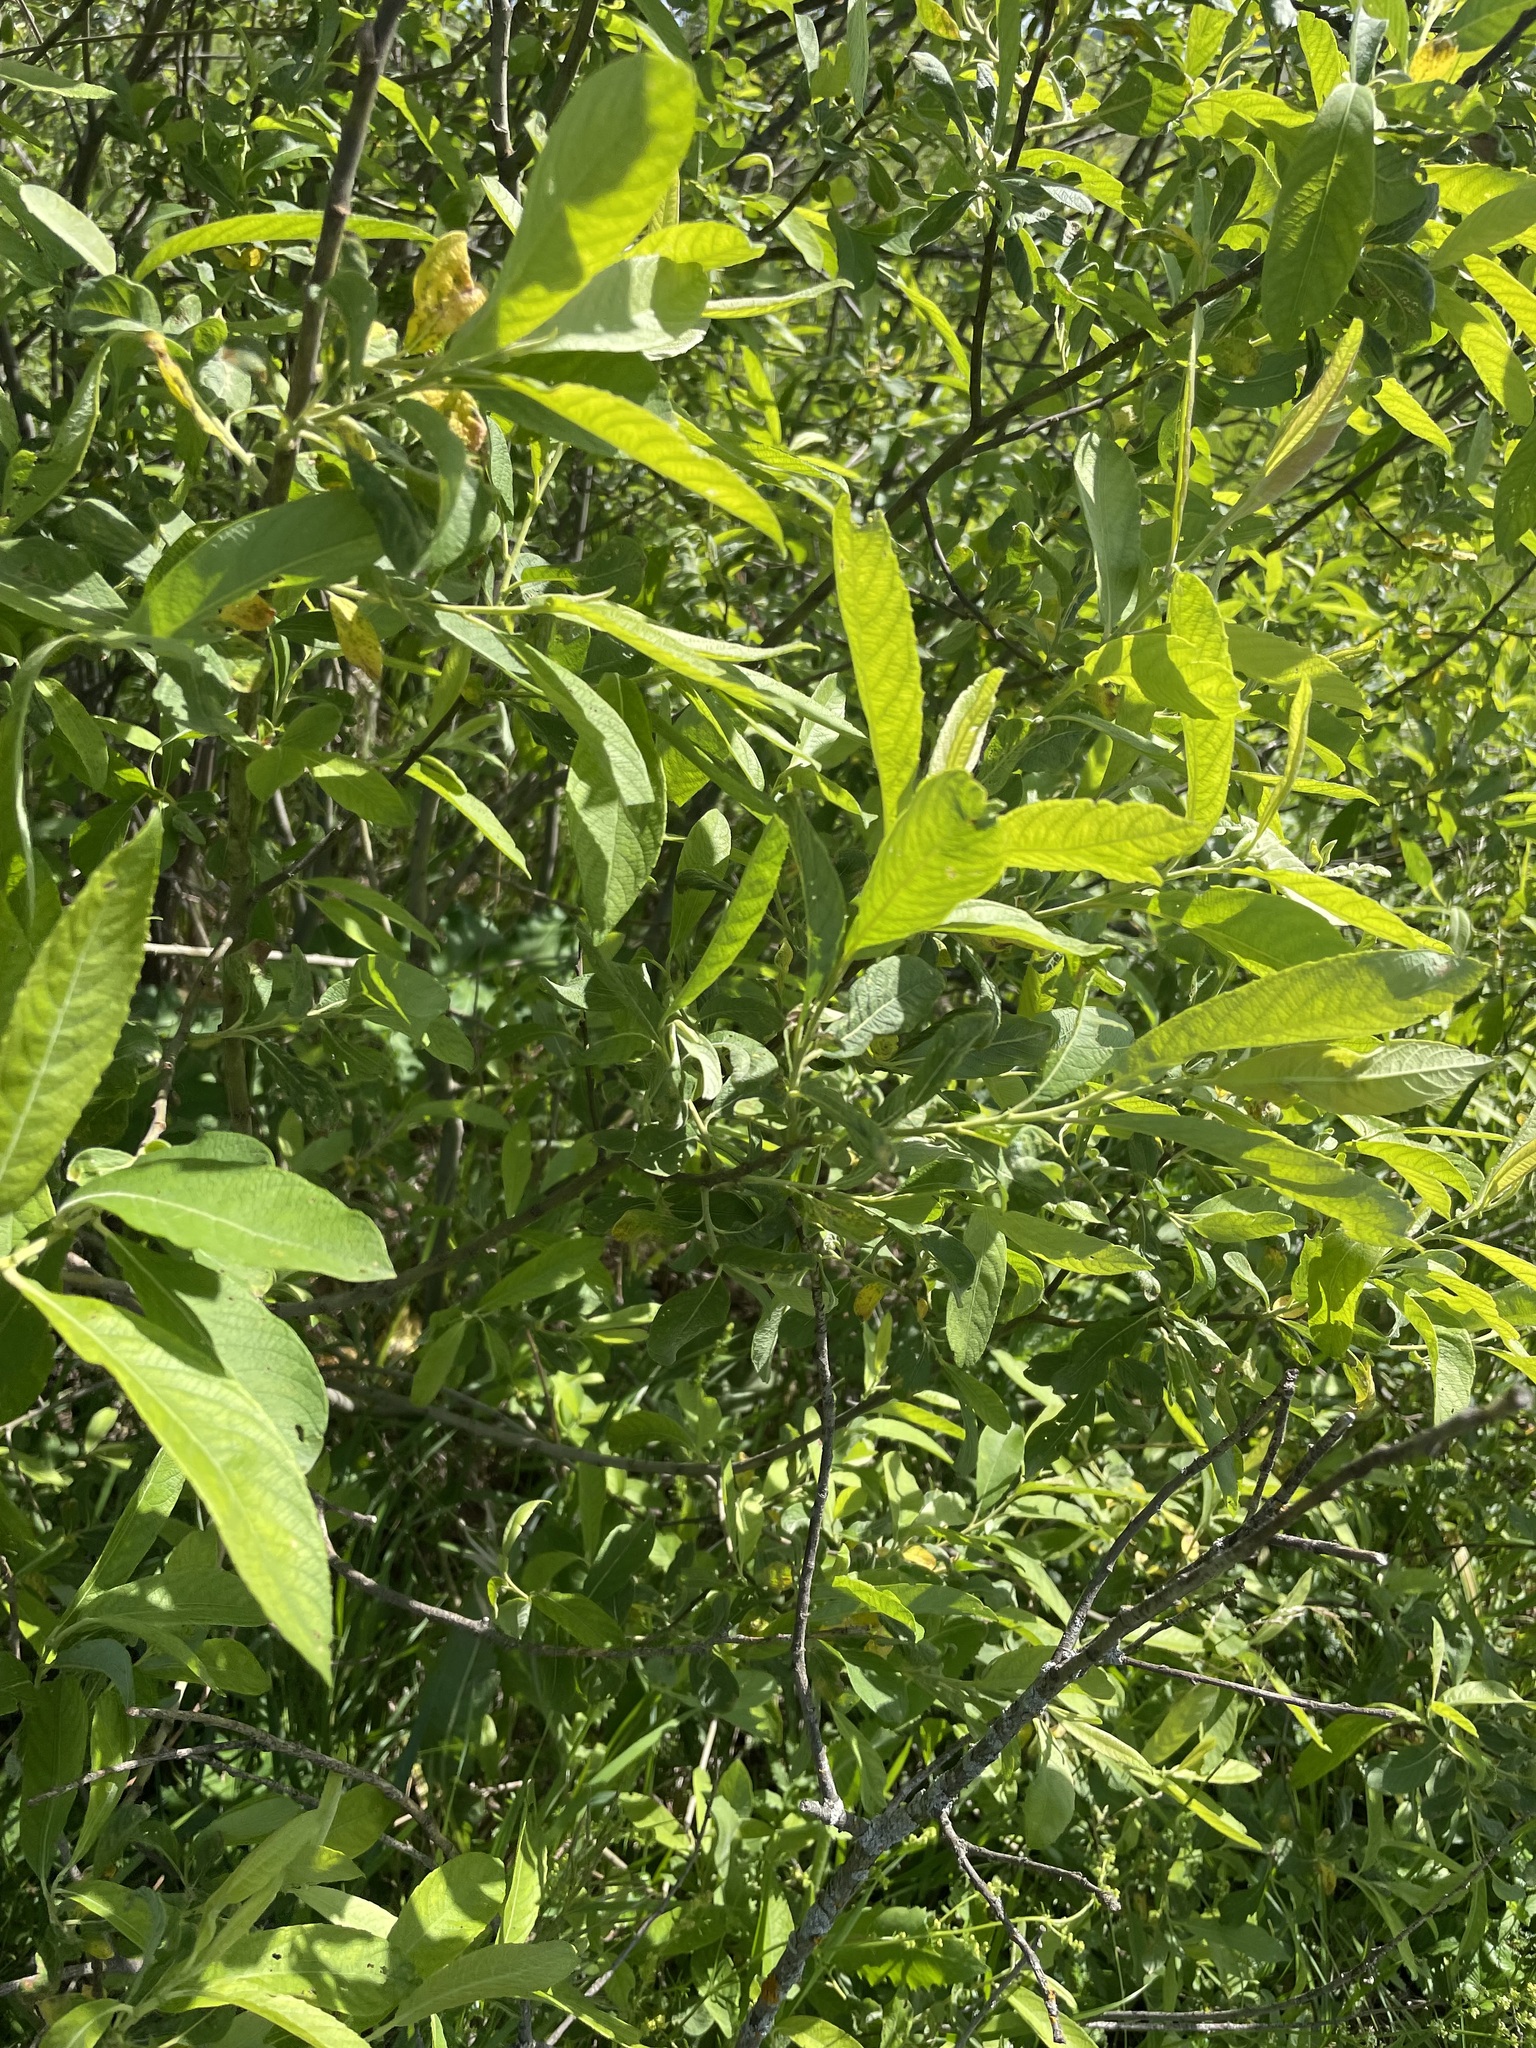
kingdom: Plantae
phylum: Tracheophyta
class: Magnoliopsida
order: Malpighiales
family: Salicaceae
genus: Salix
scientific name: Salix cinerea
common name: Common sallow
